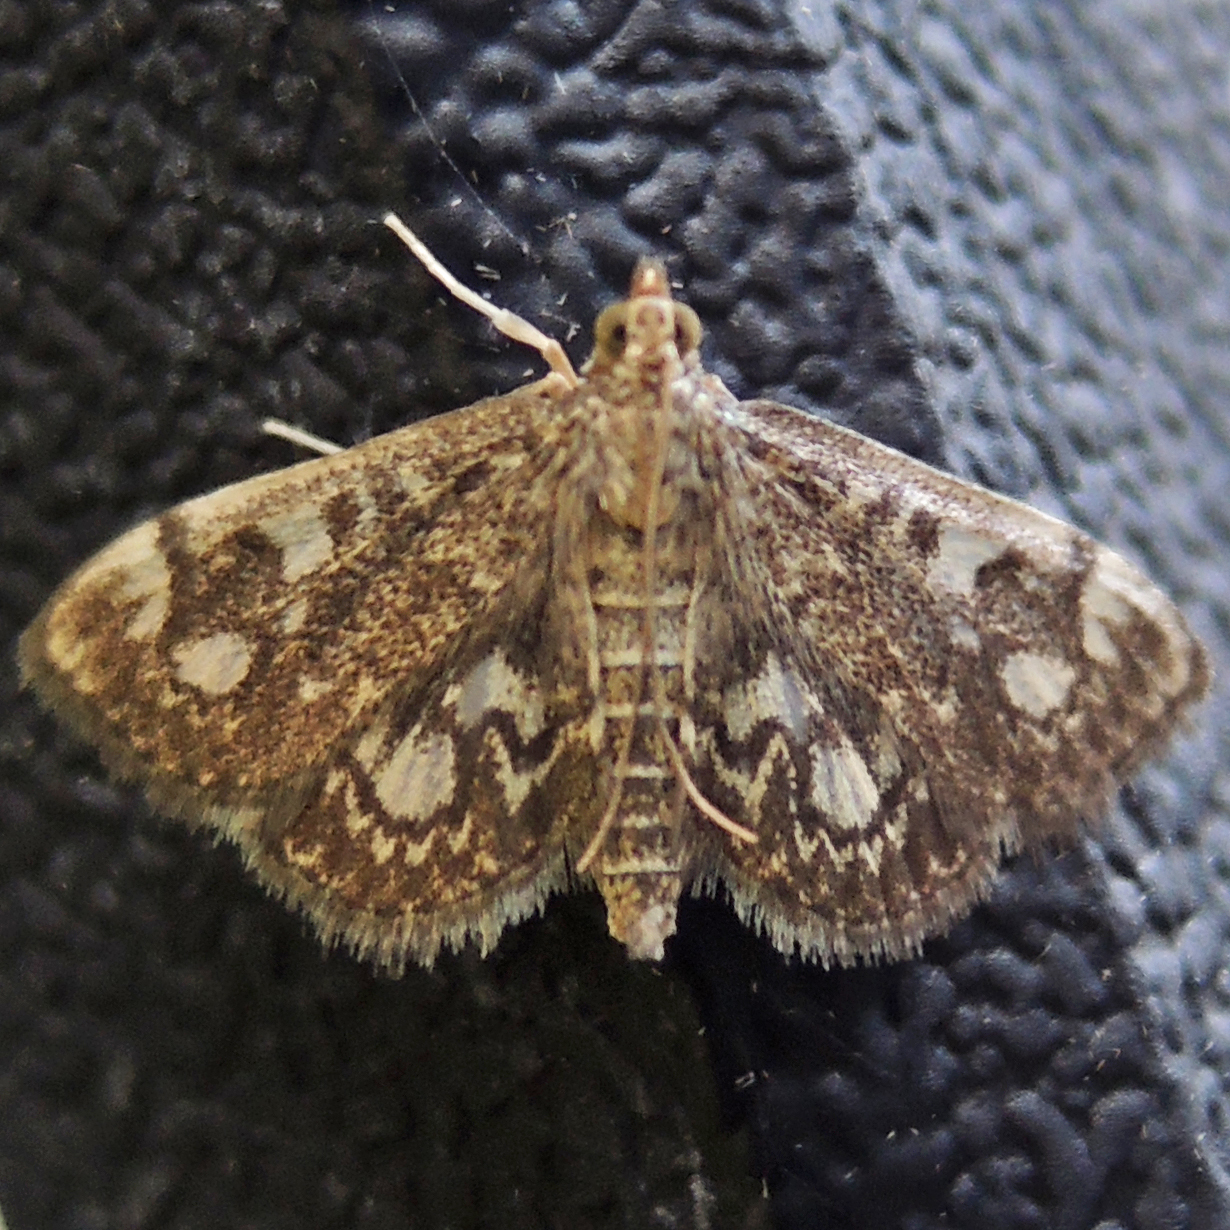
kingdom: Animalia
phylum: Arthropoda
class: Insecta
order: Lepidoptera
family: Crambidae
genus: Anania
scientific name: Anania
